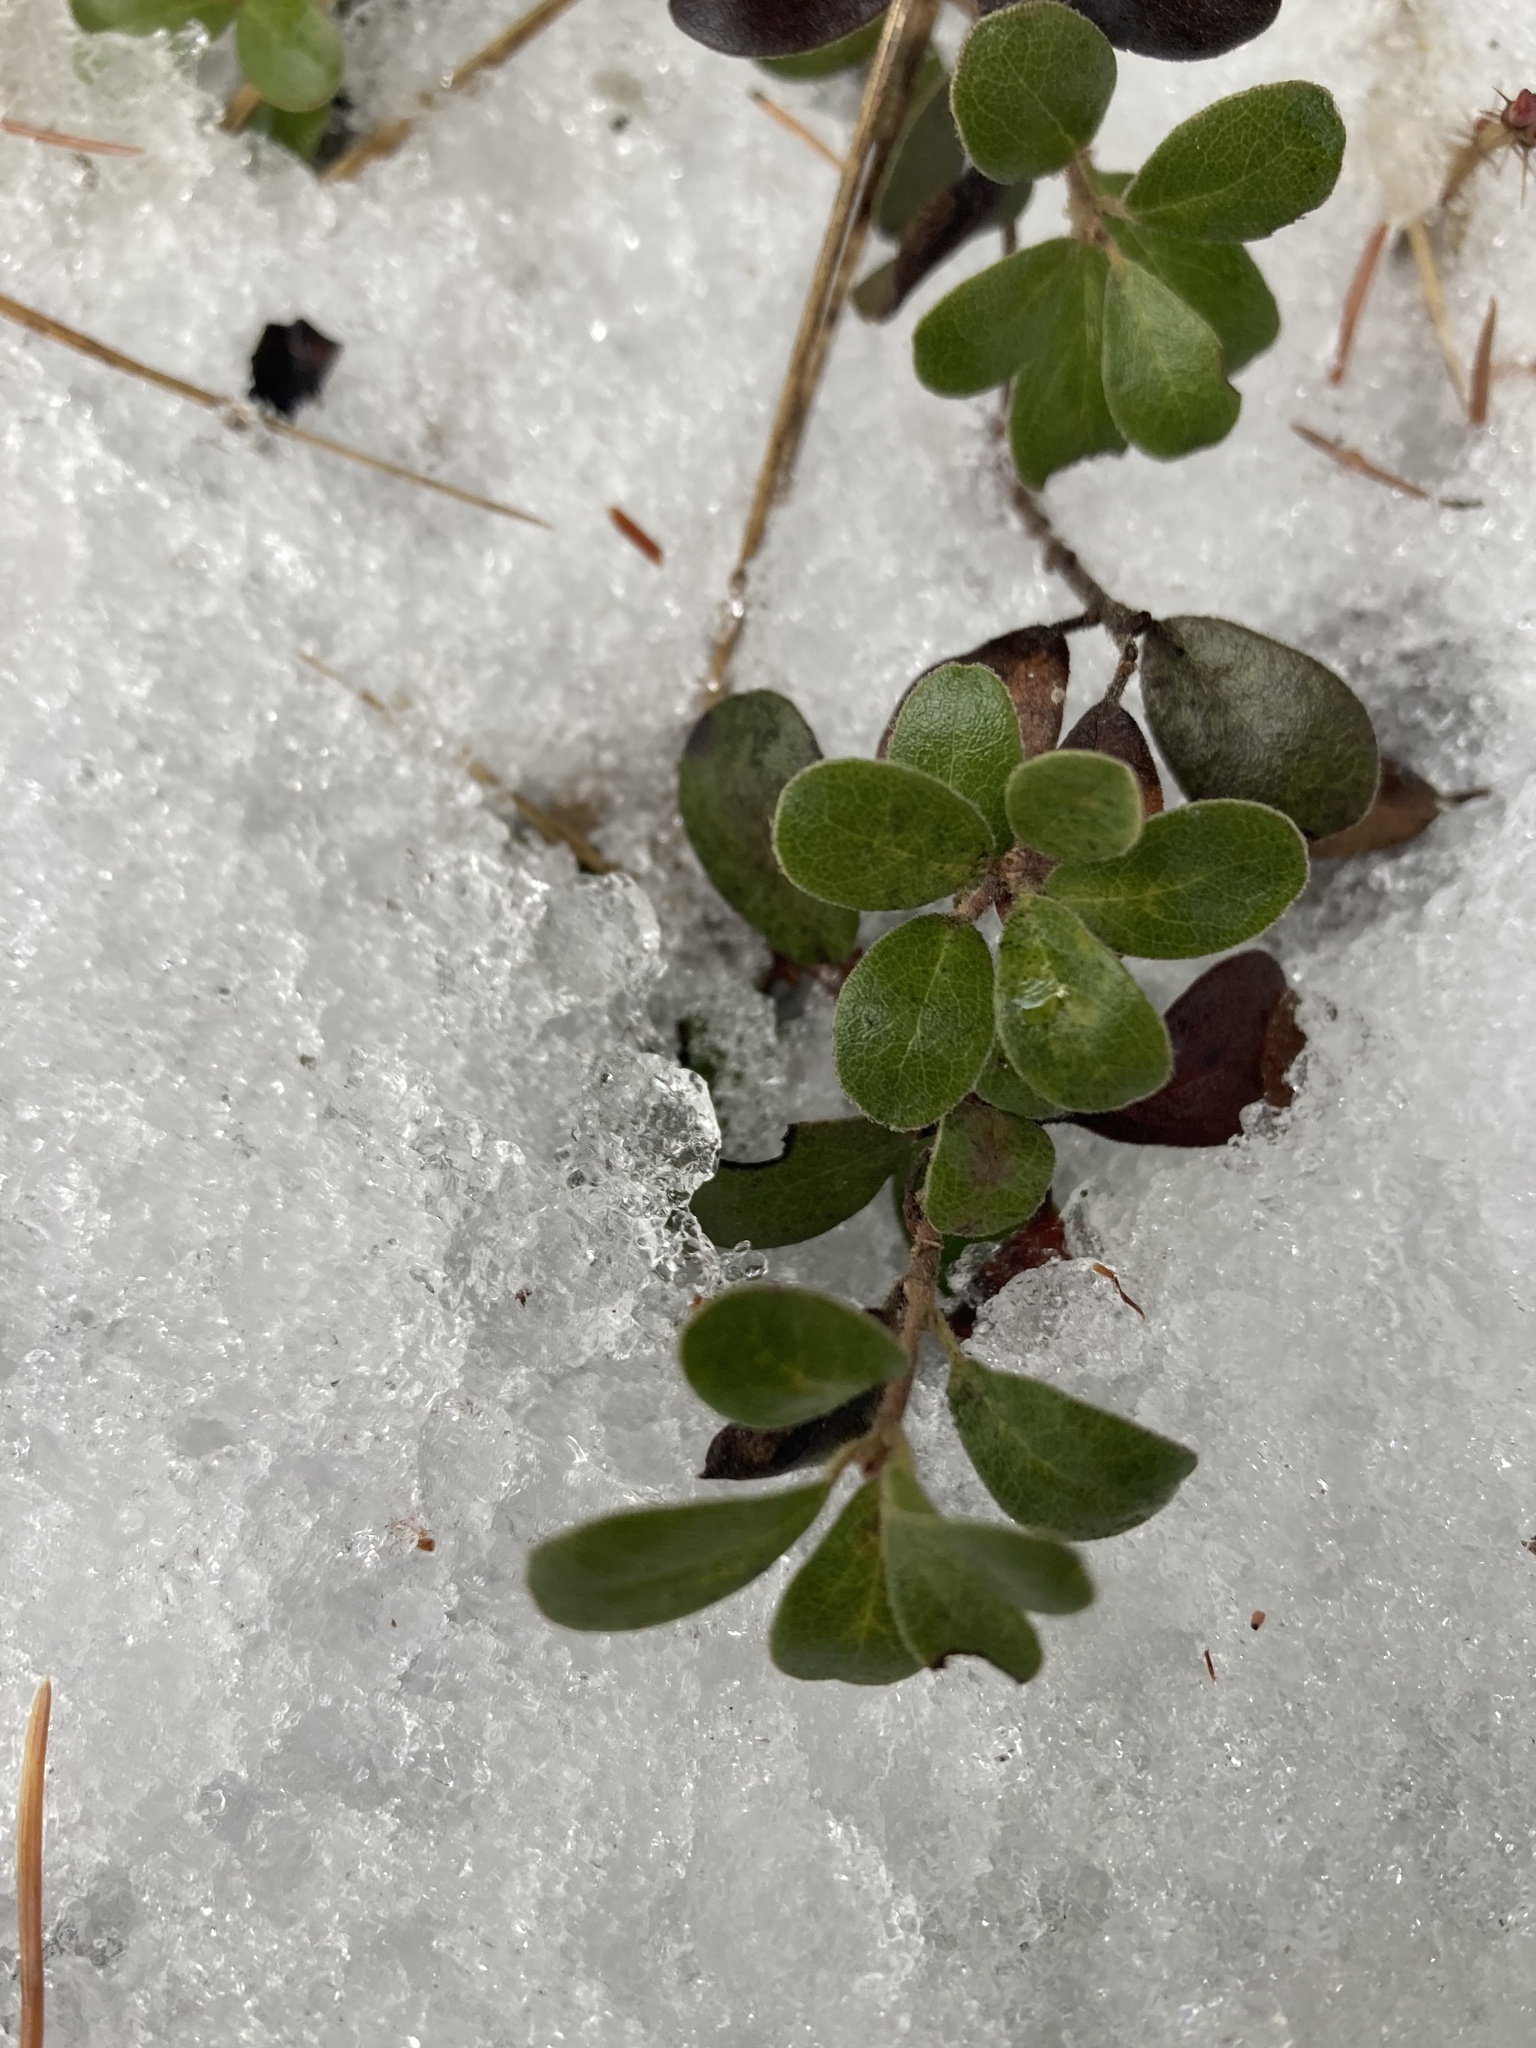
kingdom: Plantae
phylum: Tracheophyta
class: Magnoliopsida
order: Ericales
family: Ericaceae
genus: Arctostaphylos
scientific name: Arctostaphylos uva-ursi
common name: Bearberry
